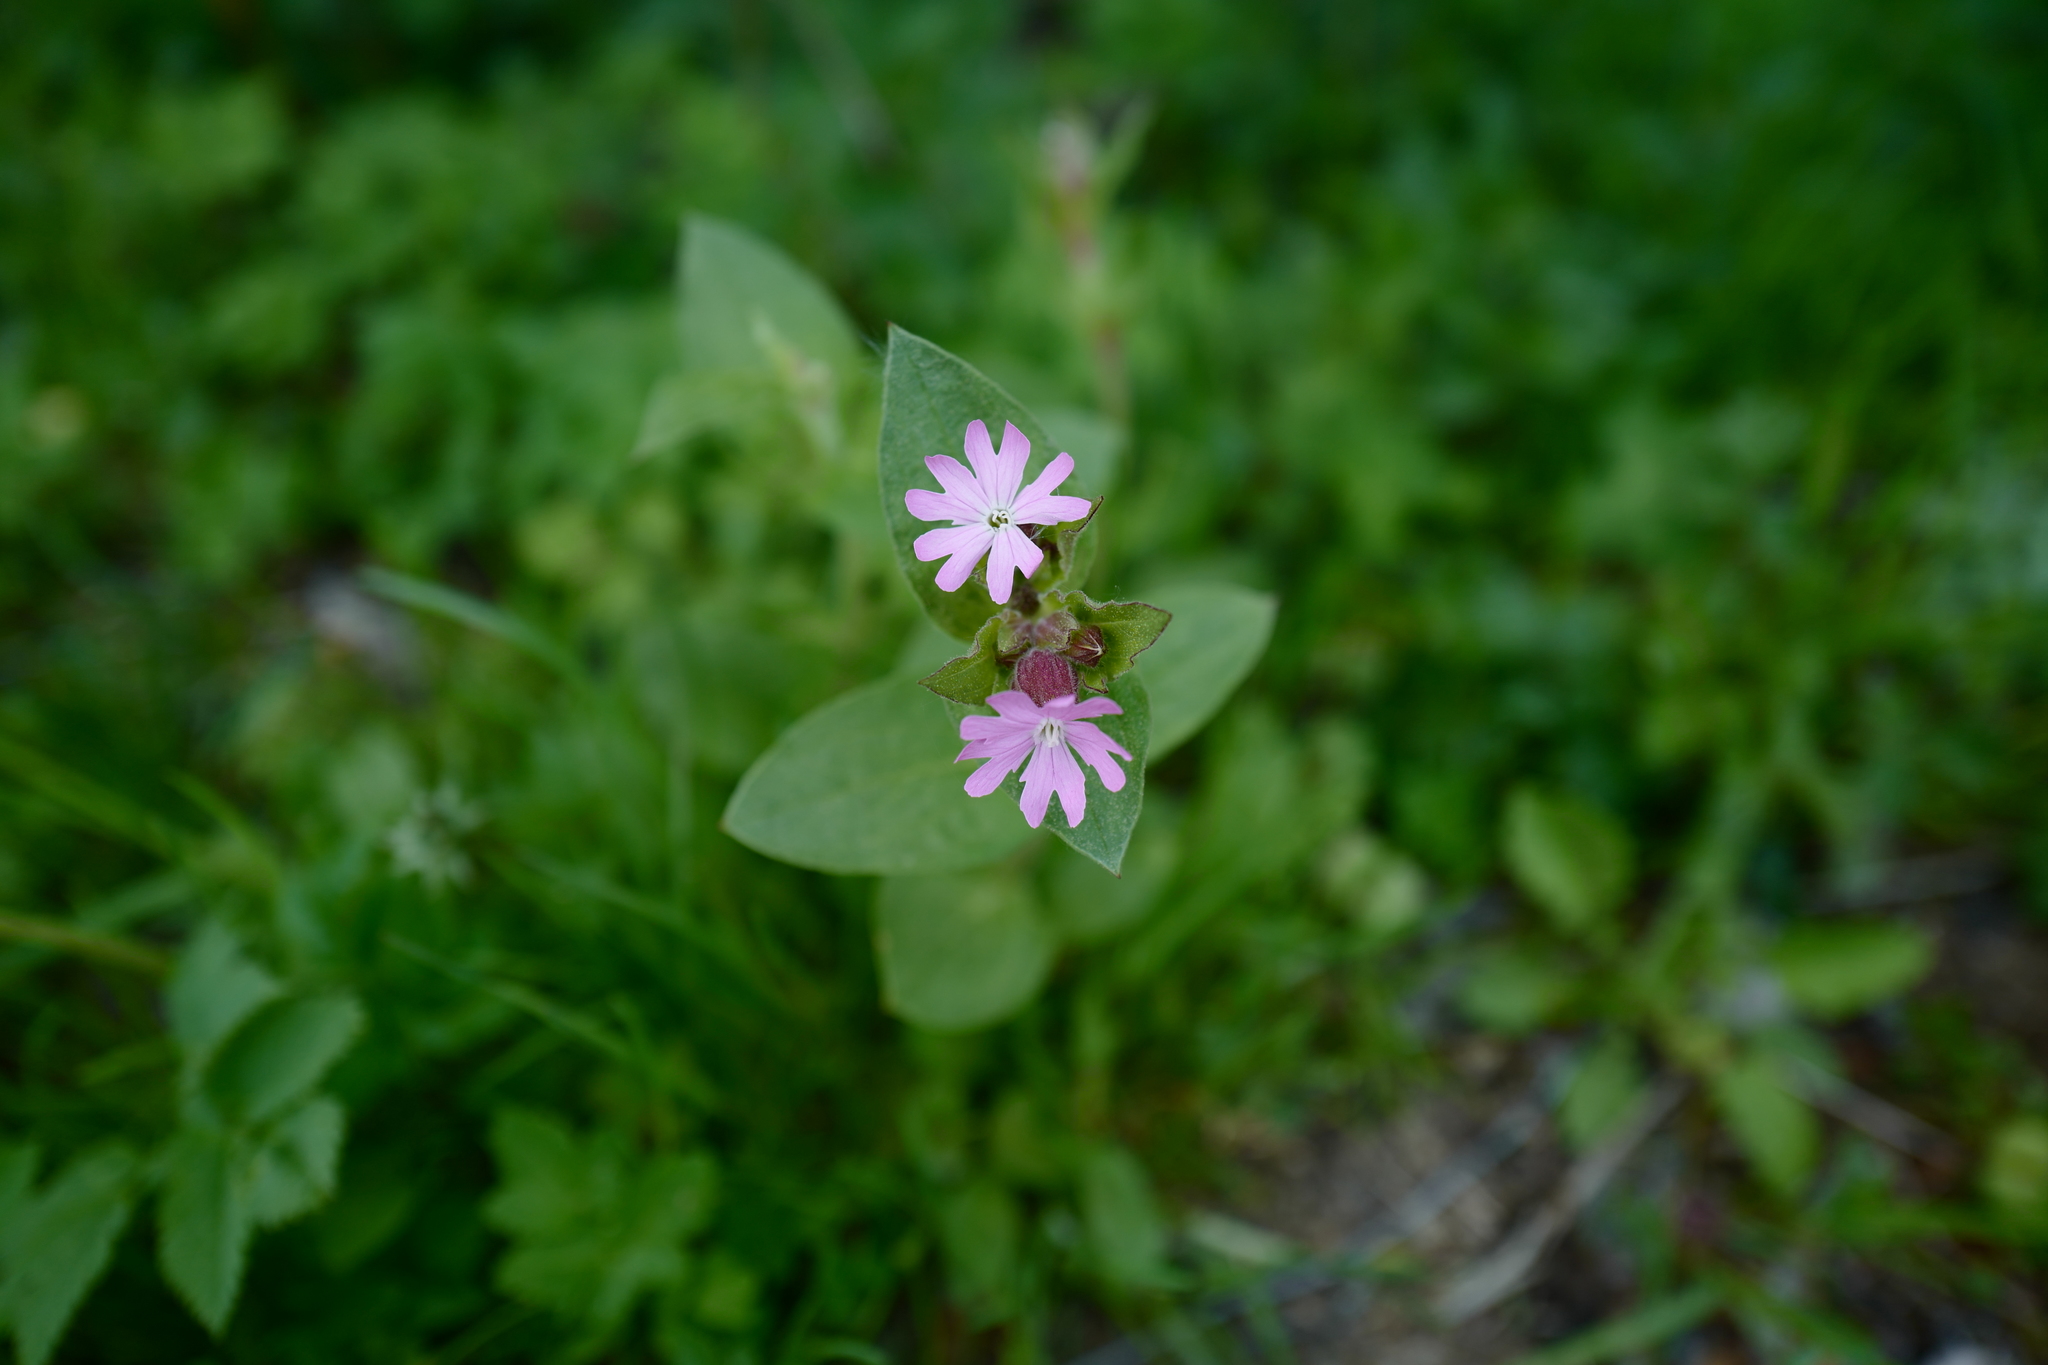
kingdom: Plantae
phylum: Tracheophyta
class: Magnoliopsida
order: Caryophyllales
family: Caryophyllaceae
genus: Silene
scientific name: Silene dioica
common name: Red campion
